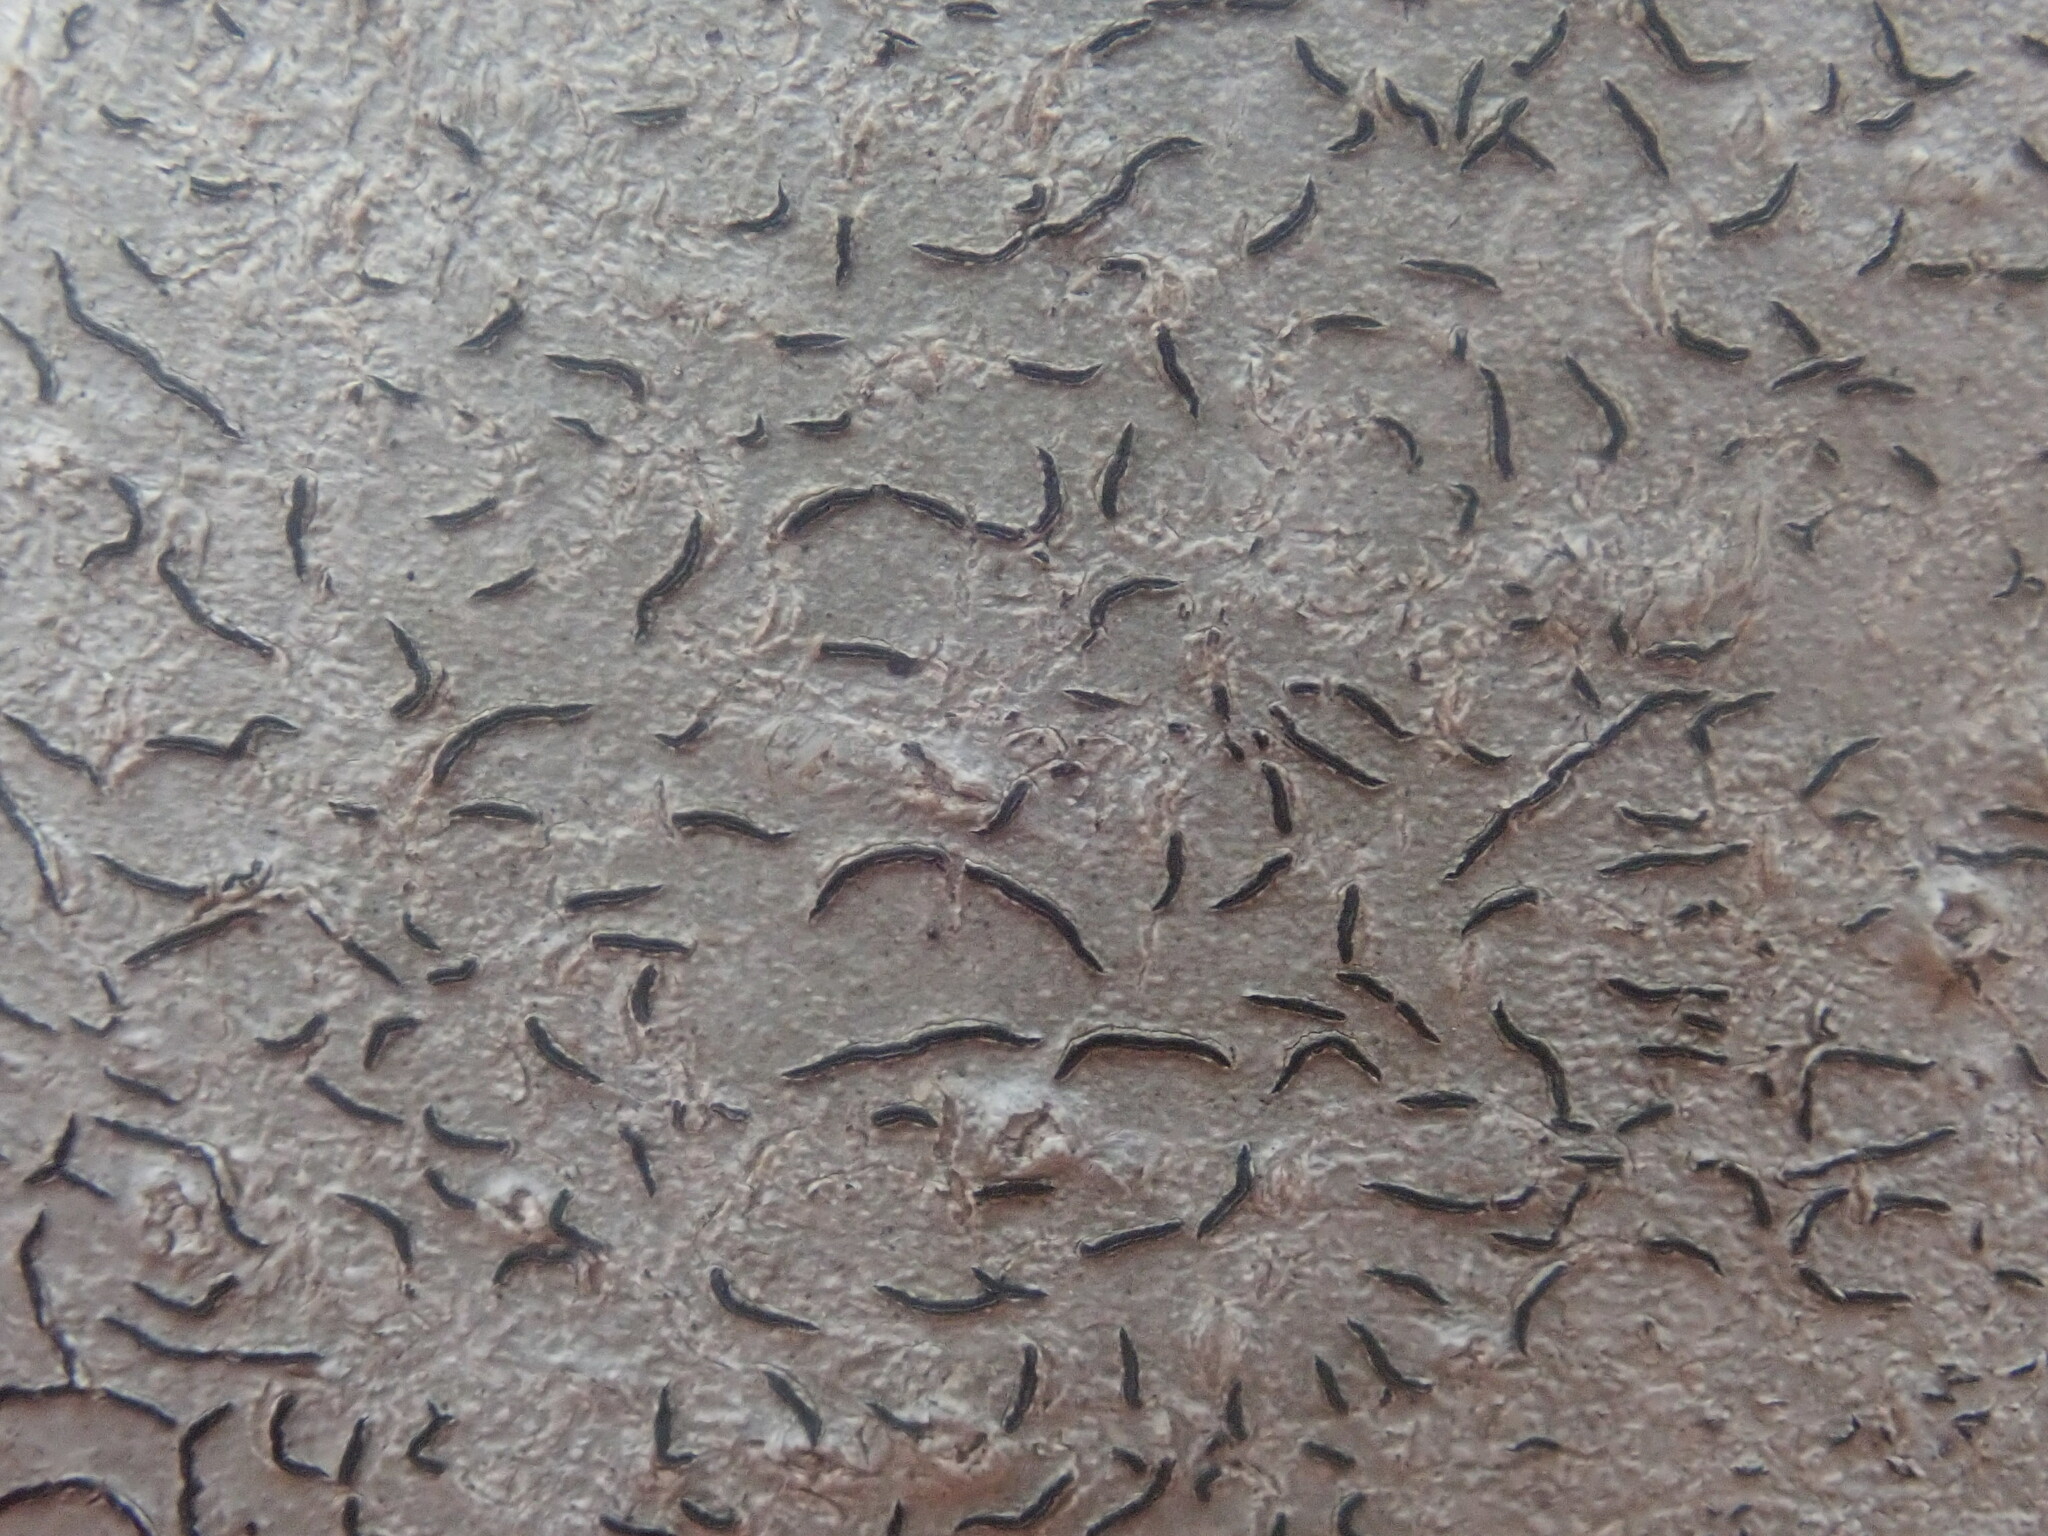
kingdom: Fungi
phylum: Ascomycota
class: Lecanoromycetes
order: Ostropales
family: Graphidaceae
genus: Graphis
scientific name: Graphis scripta
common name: Script lichen
